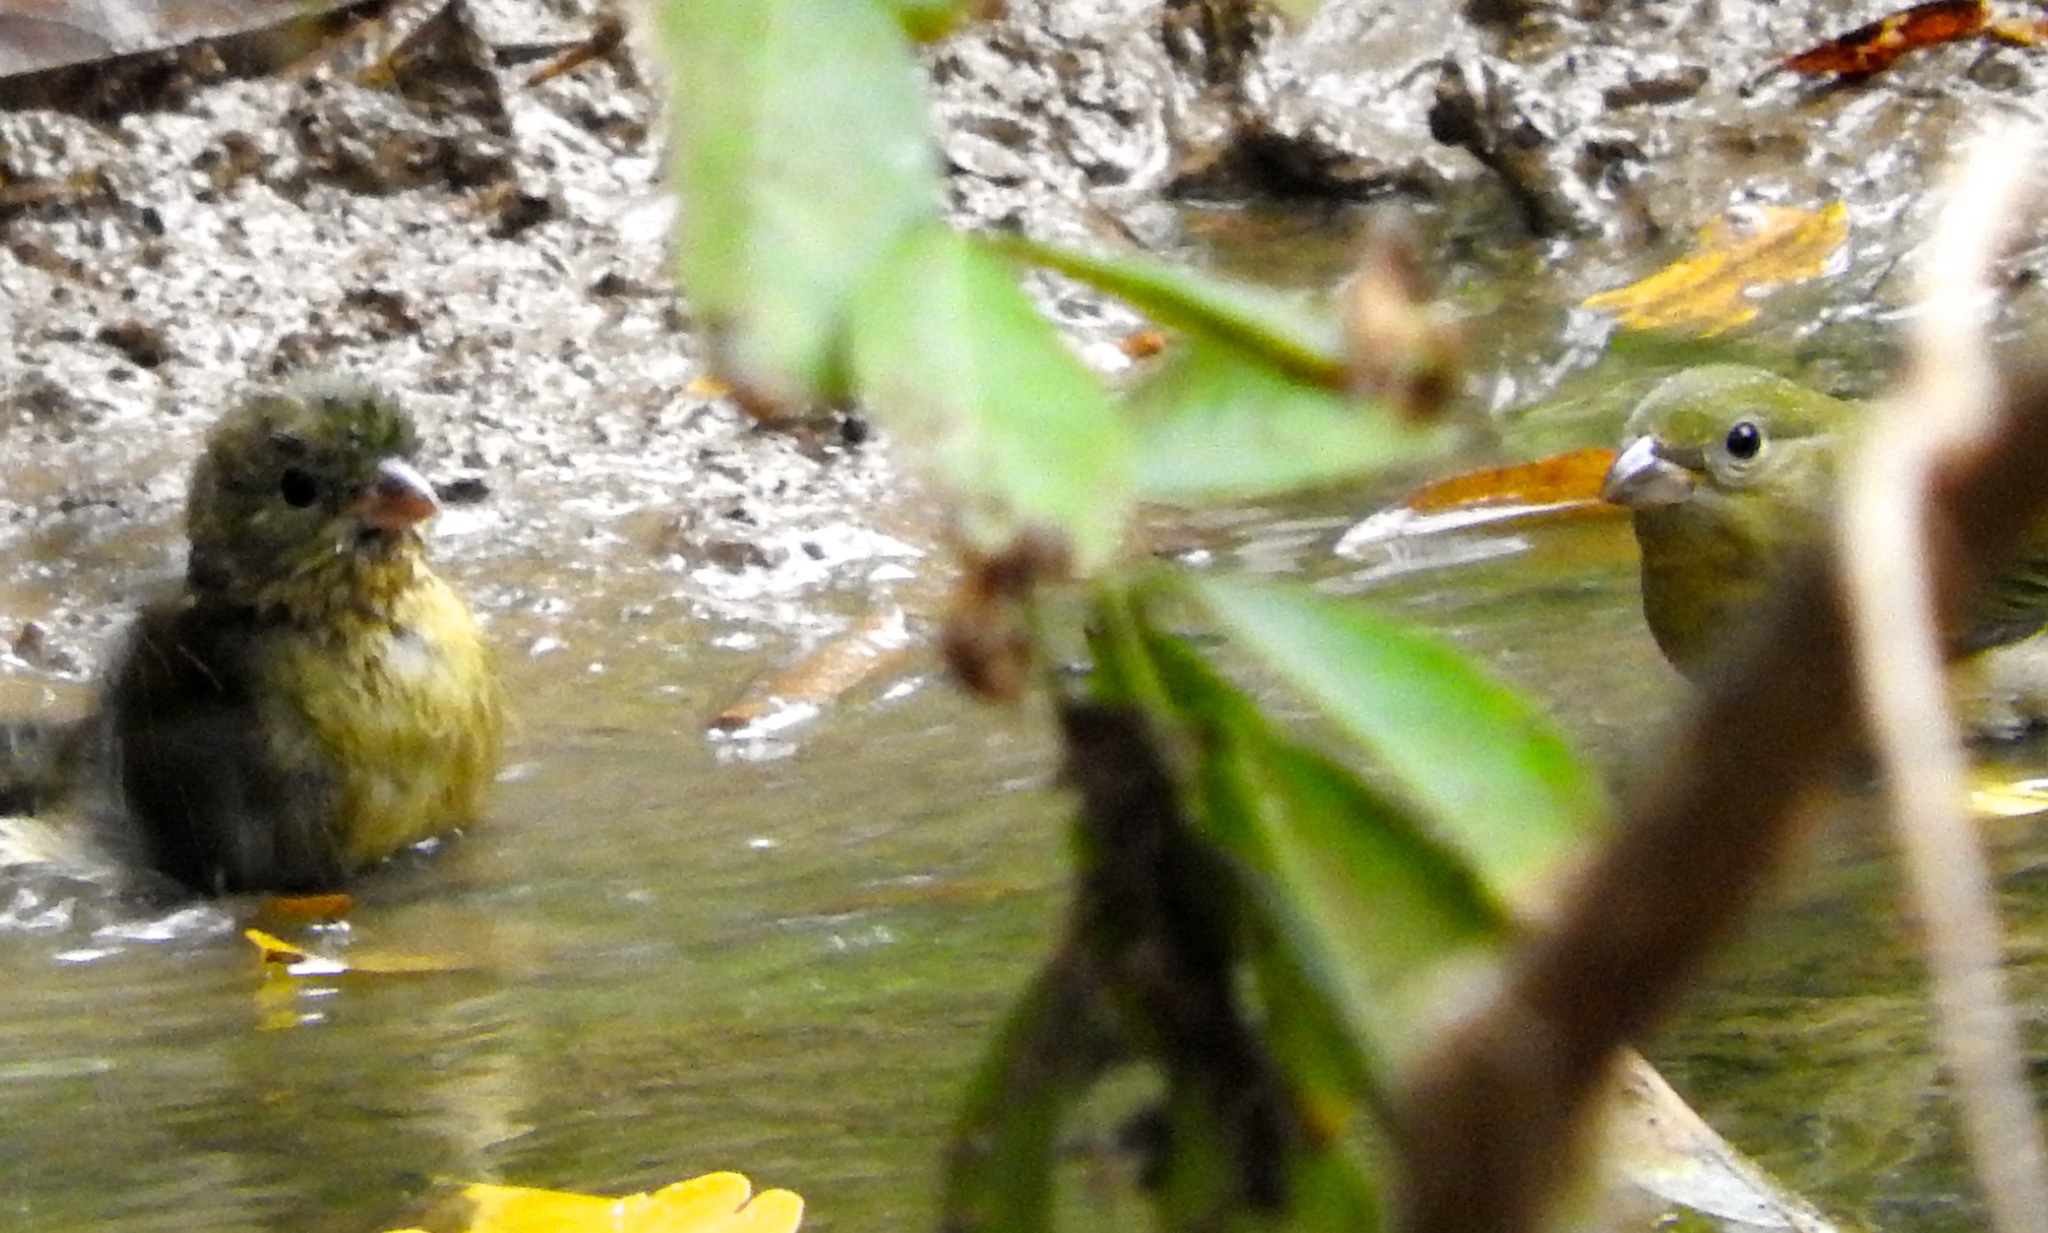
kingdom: Animalia
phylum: Chordata
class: Aves
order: Passeriformes
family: Cardinalidae
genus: Passerina
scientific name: Passerina ciris
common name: Painted bunting
